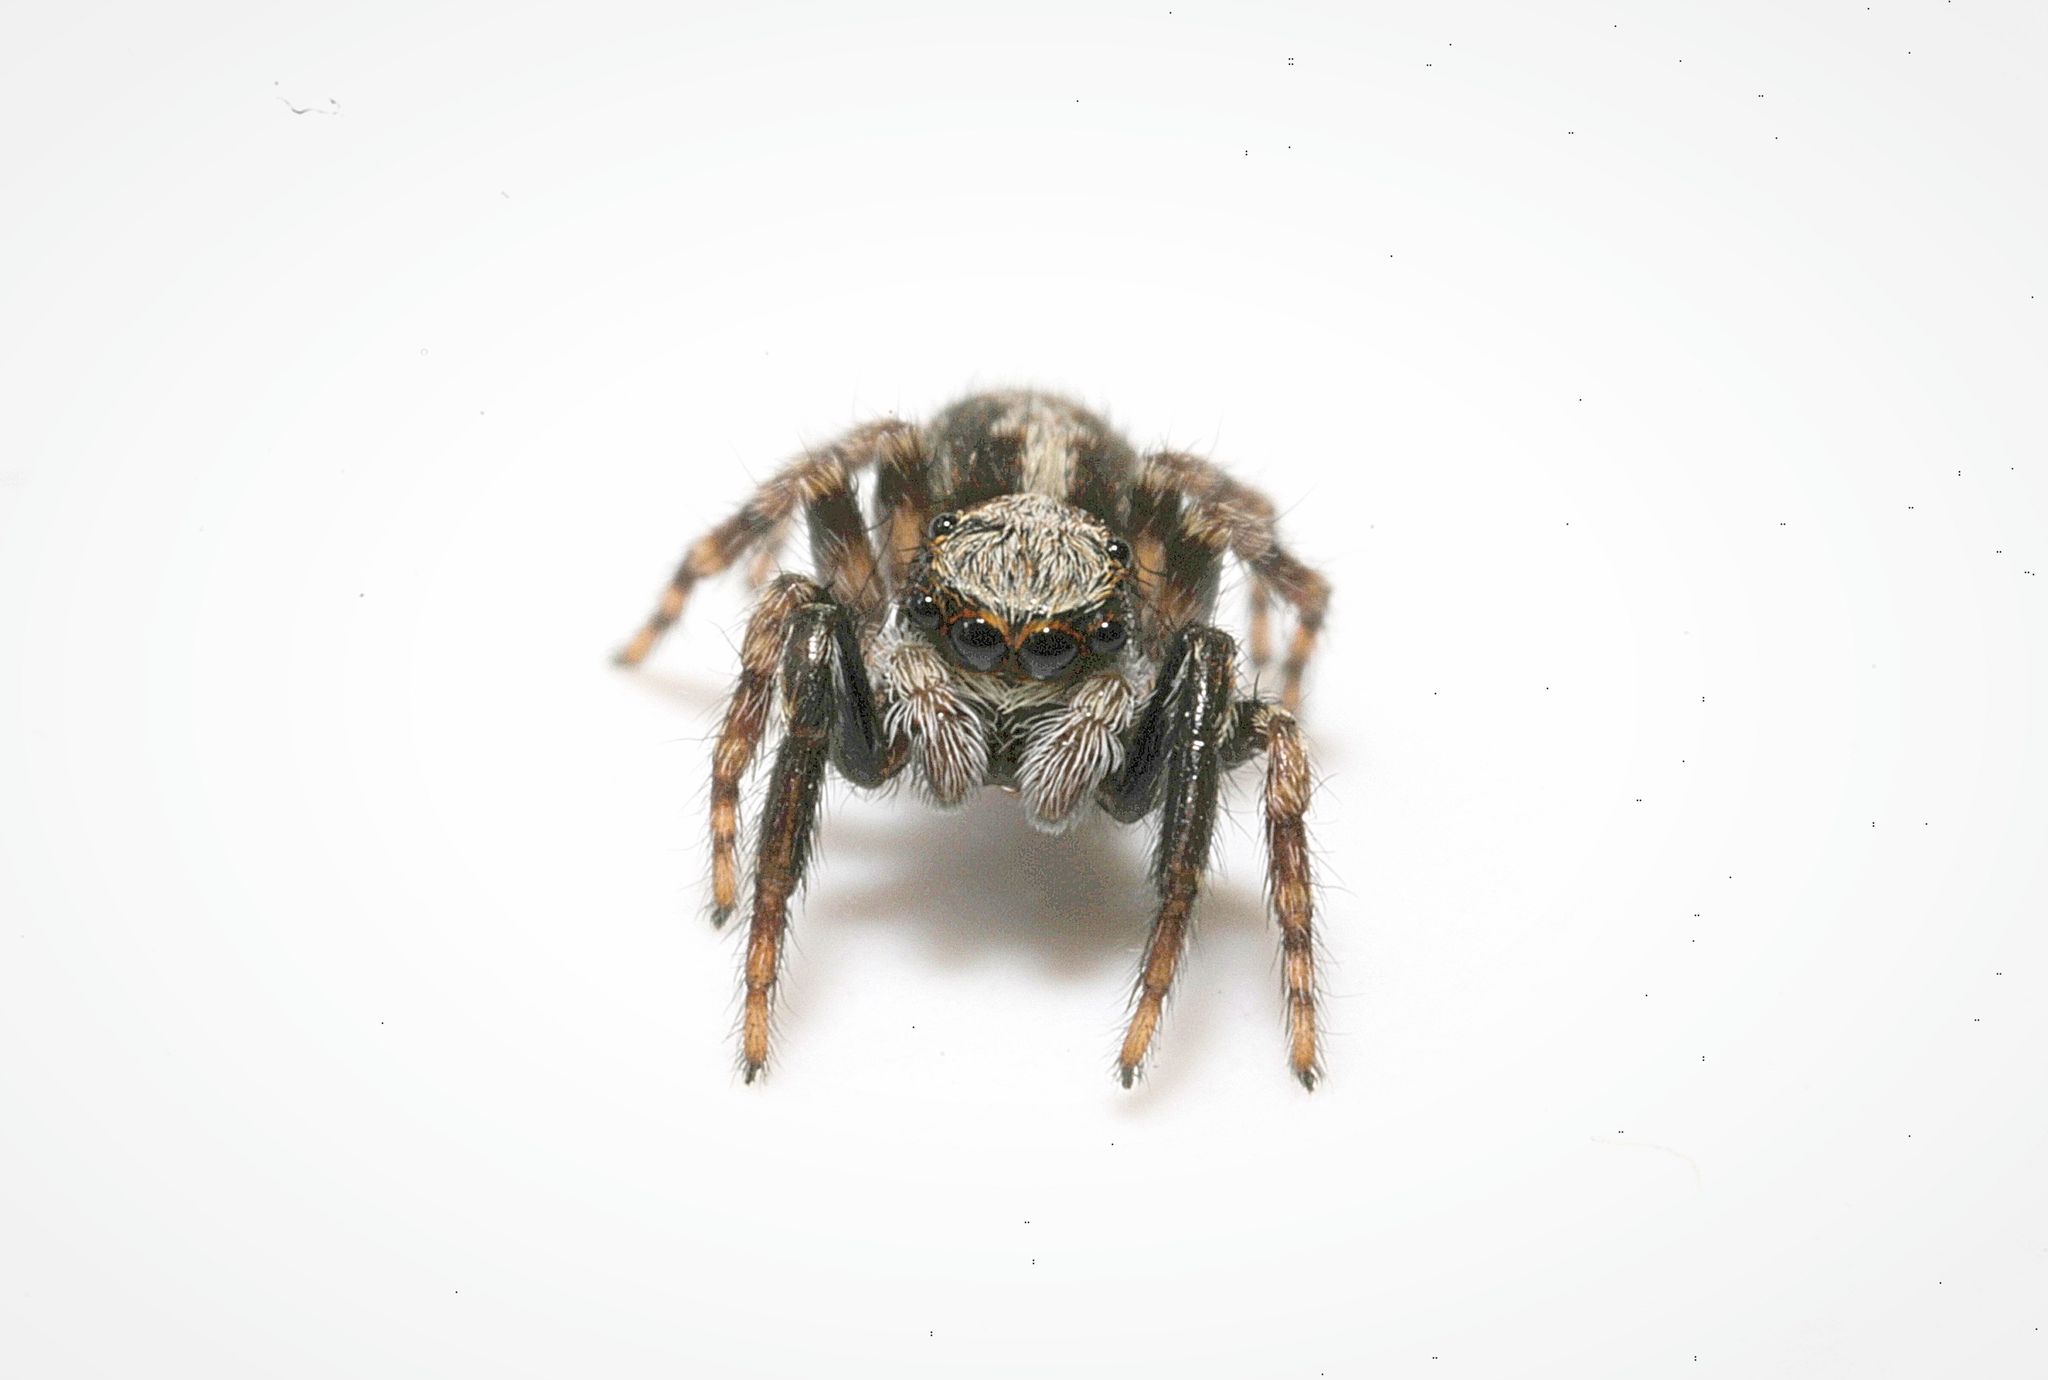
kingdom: Animalia
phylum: Arthropoda
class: Arachnida
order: Araneae
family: Salticidae
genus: Pseudeuophrys
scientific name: Pseudeuophrys lanigera
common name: Jumping spider
